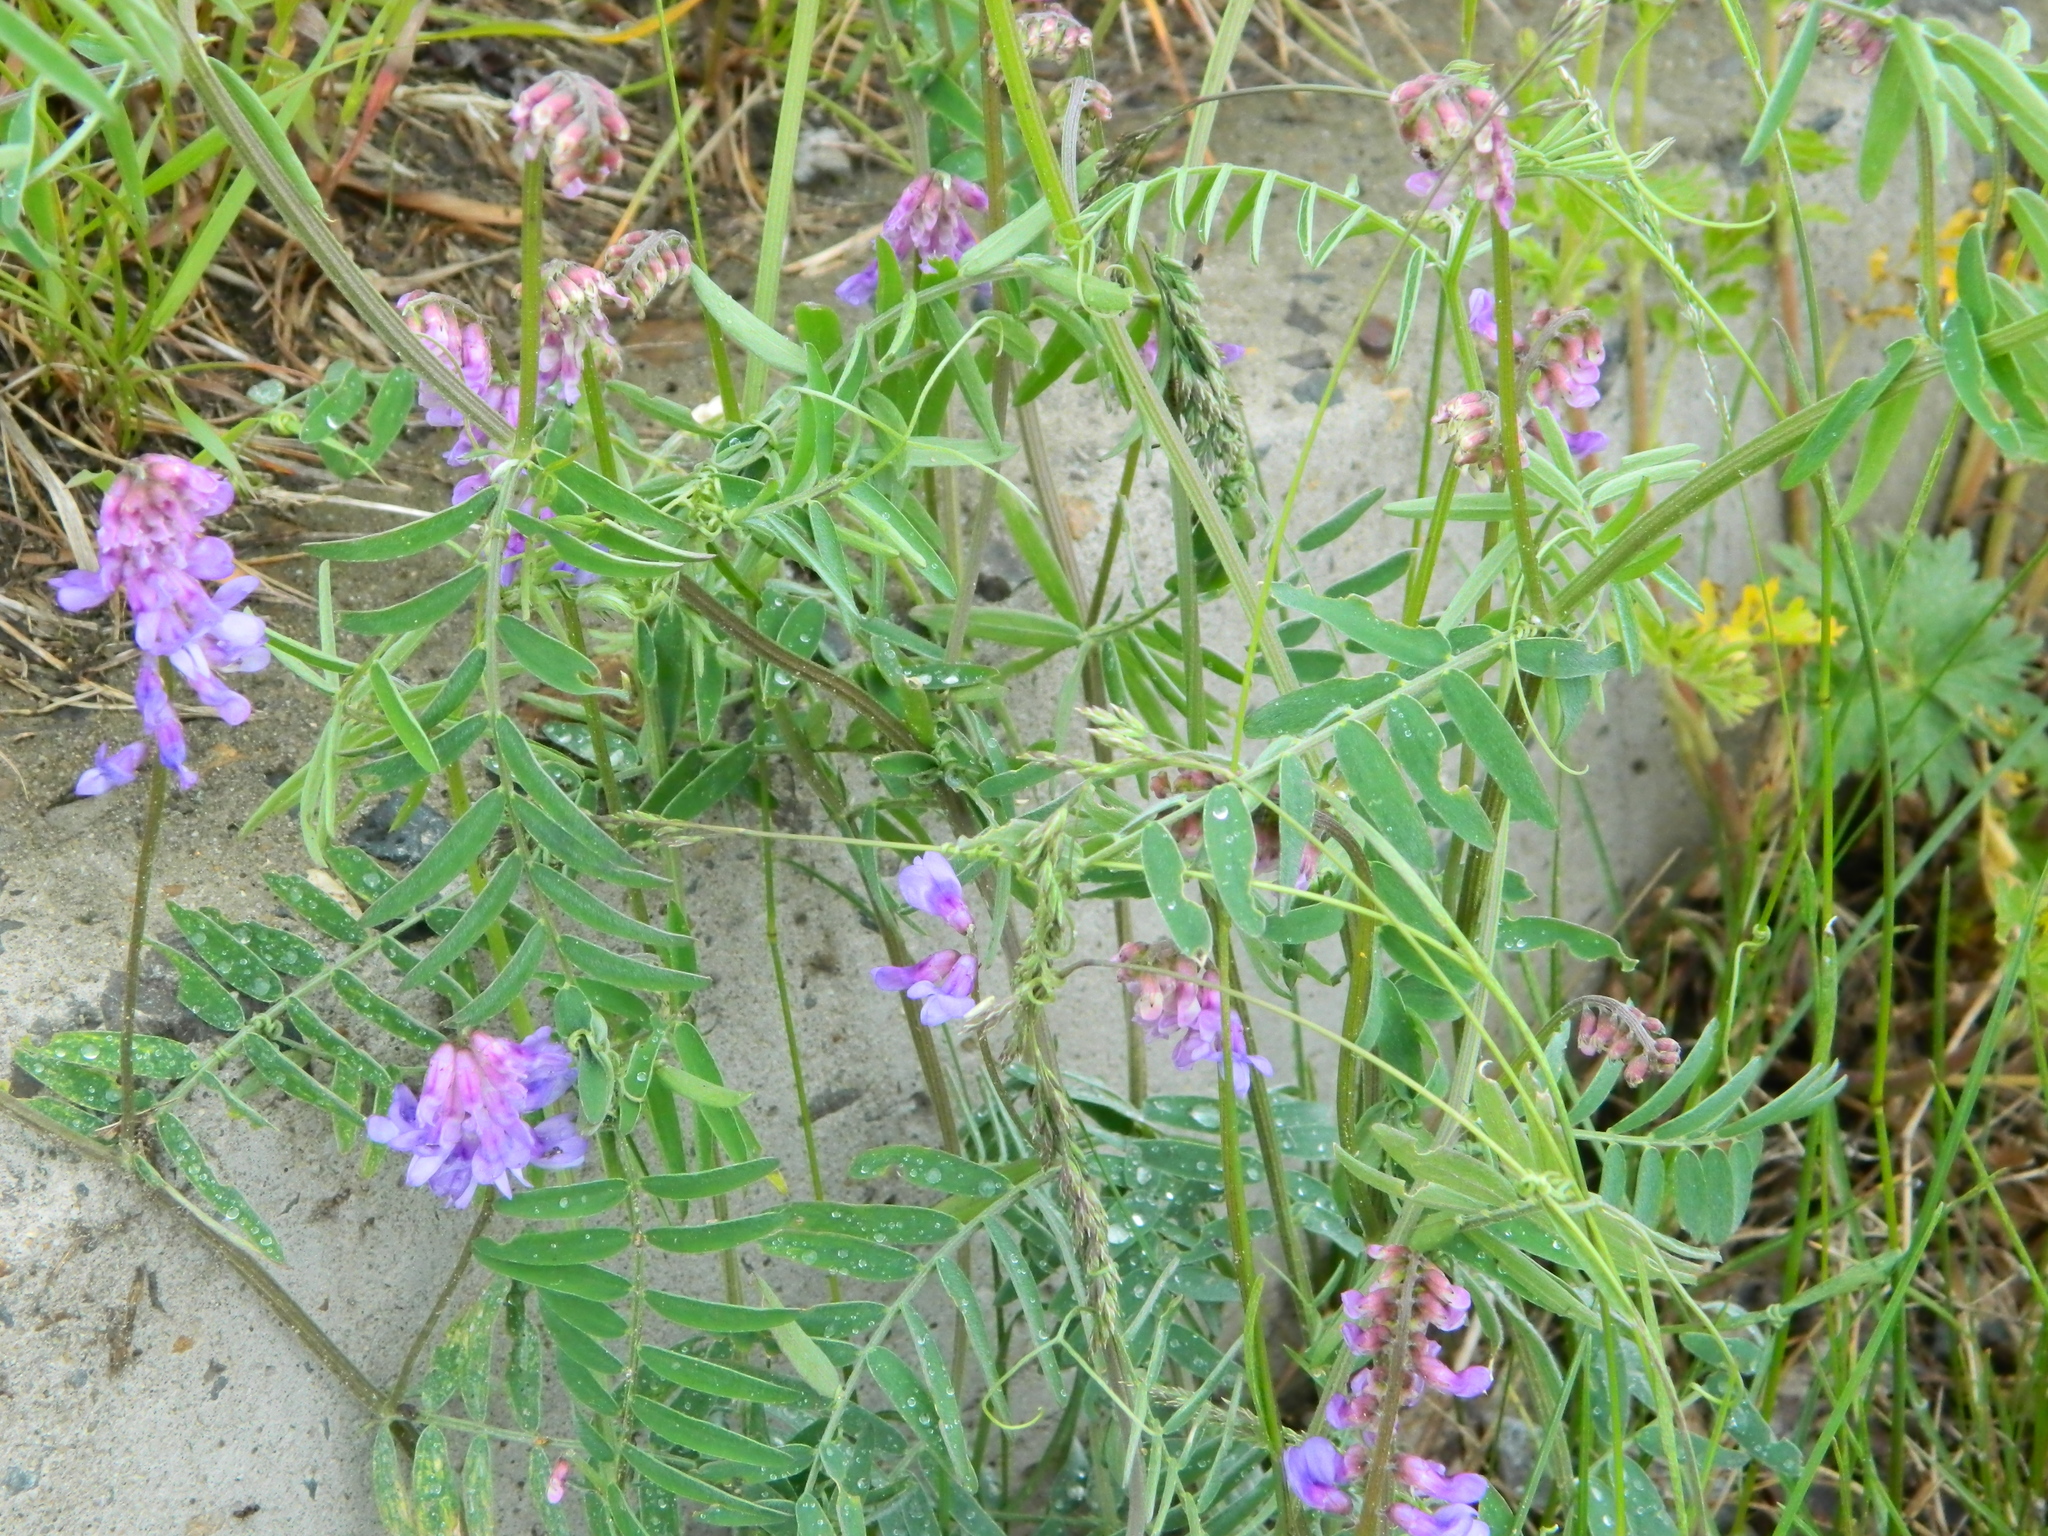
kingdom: Plantae
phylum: Tracheophyta
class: Magnoliopsida
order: Fabales
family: Fabaceae
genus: Vicia
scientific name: Vicia cracca
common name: Bird vetch
